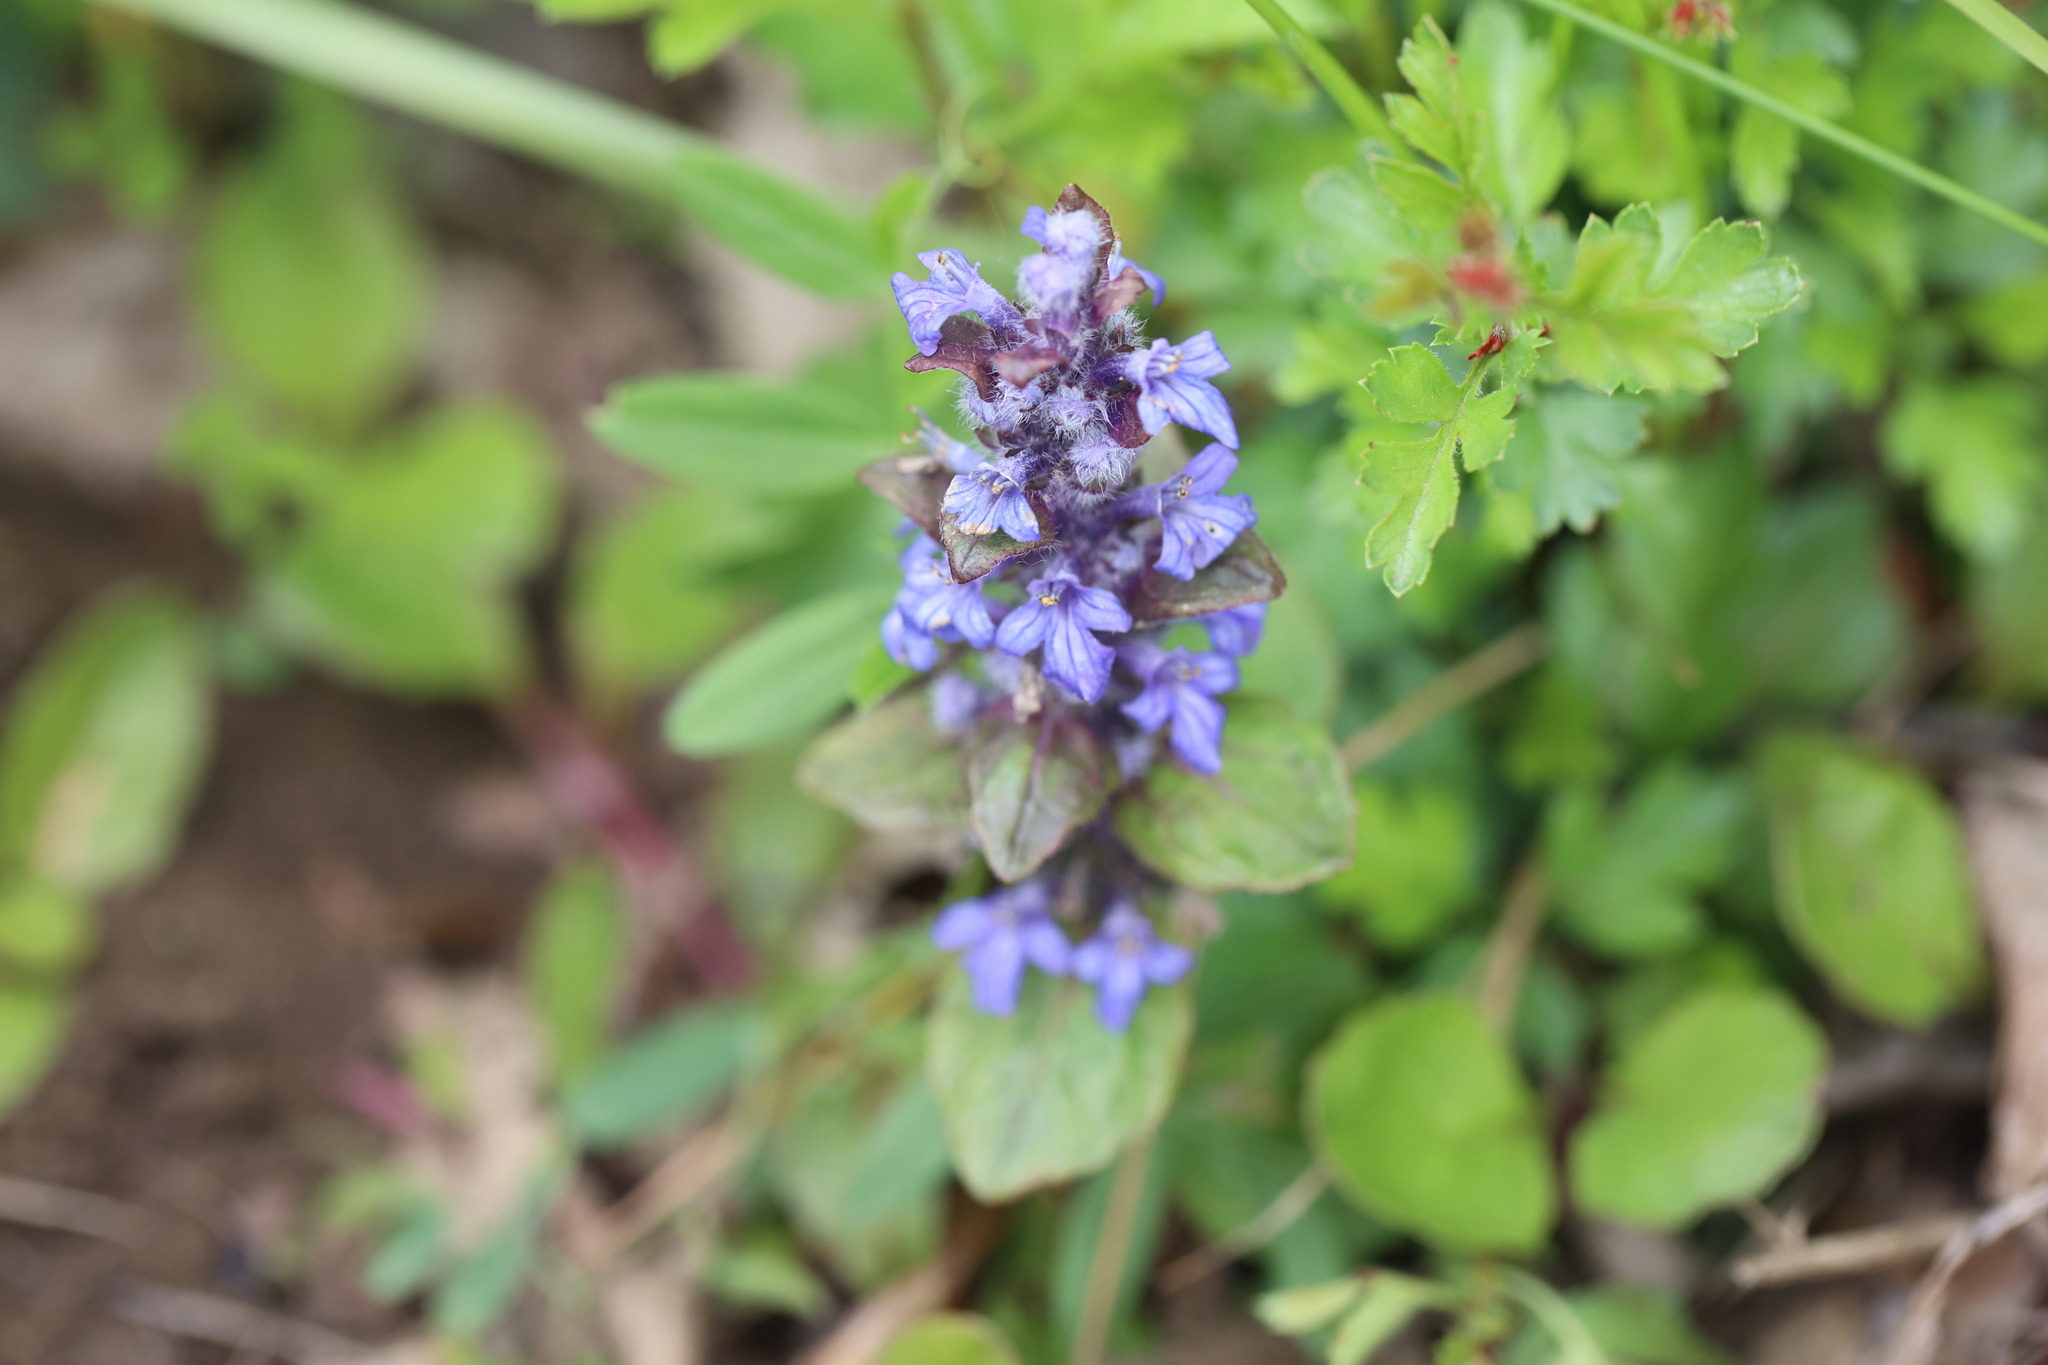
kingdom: Plantae
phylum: Tracheophyta
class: Magnoliopsida
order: Lamiales
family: Lamiaceae
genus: Ajuga
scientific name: Ajuga reptans
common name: Bugle
